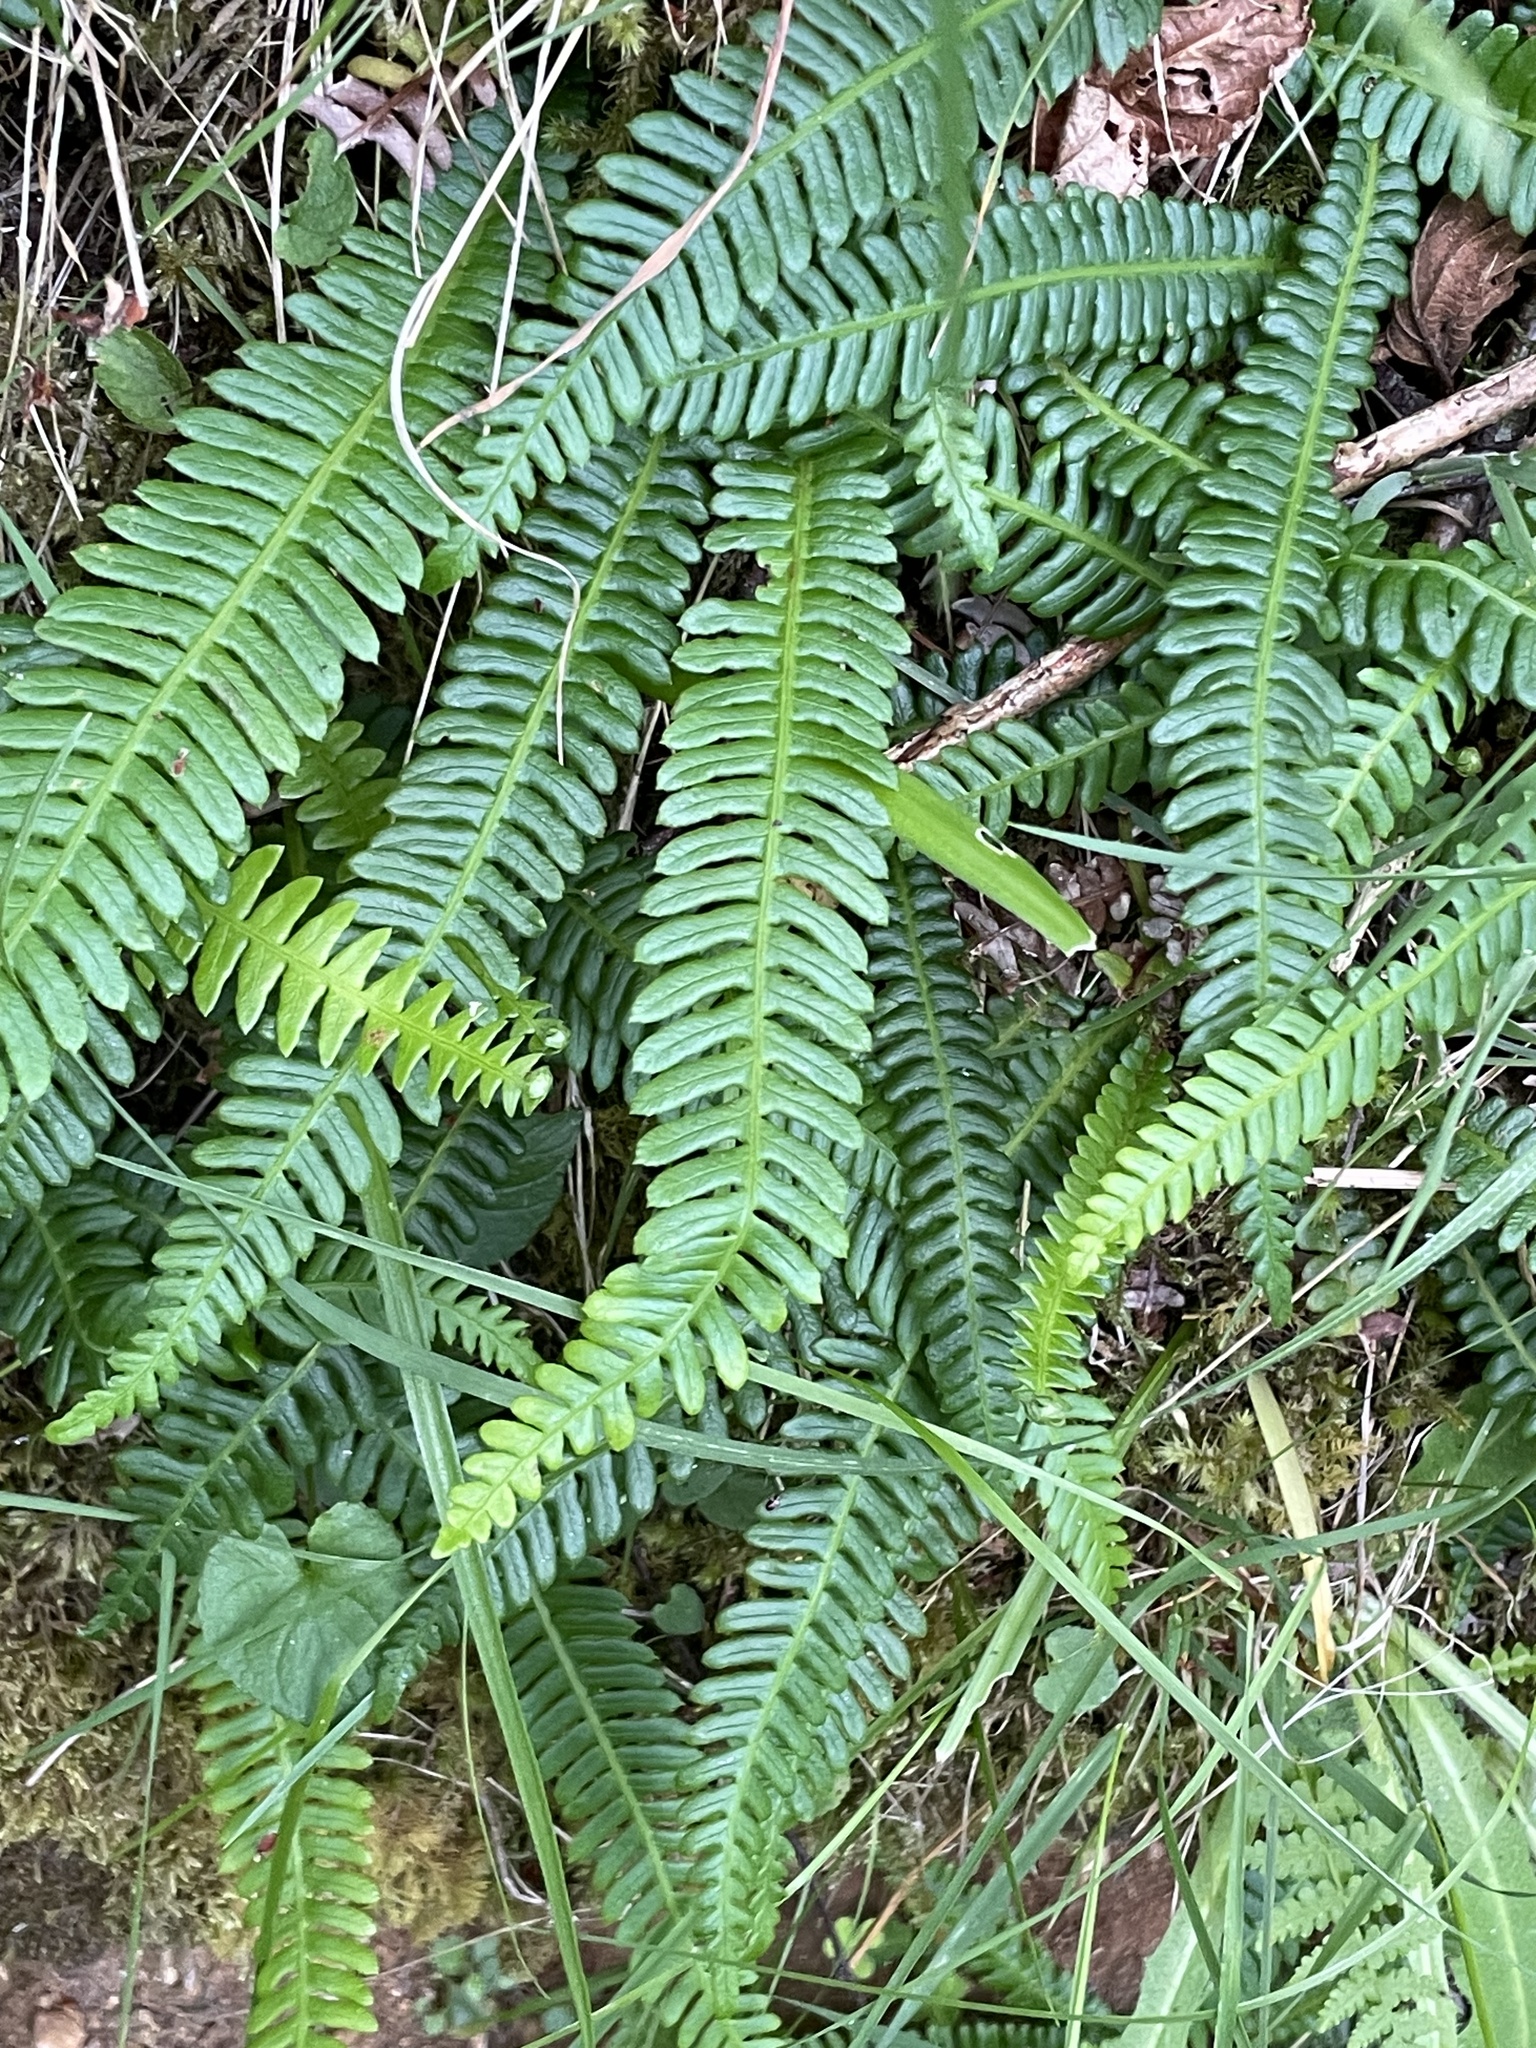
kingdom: Plantae
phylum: Tracheophyta
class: Polypodiopsida
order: Polypodiales
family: Blechnaceae
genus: Struthiopteris
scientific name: Struthiopteris spicant
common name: Deer fern
